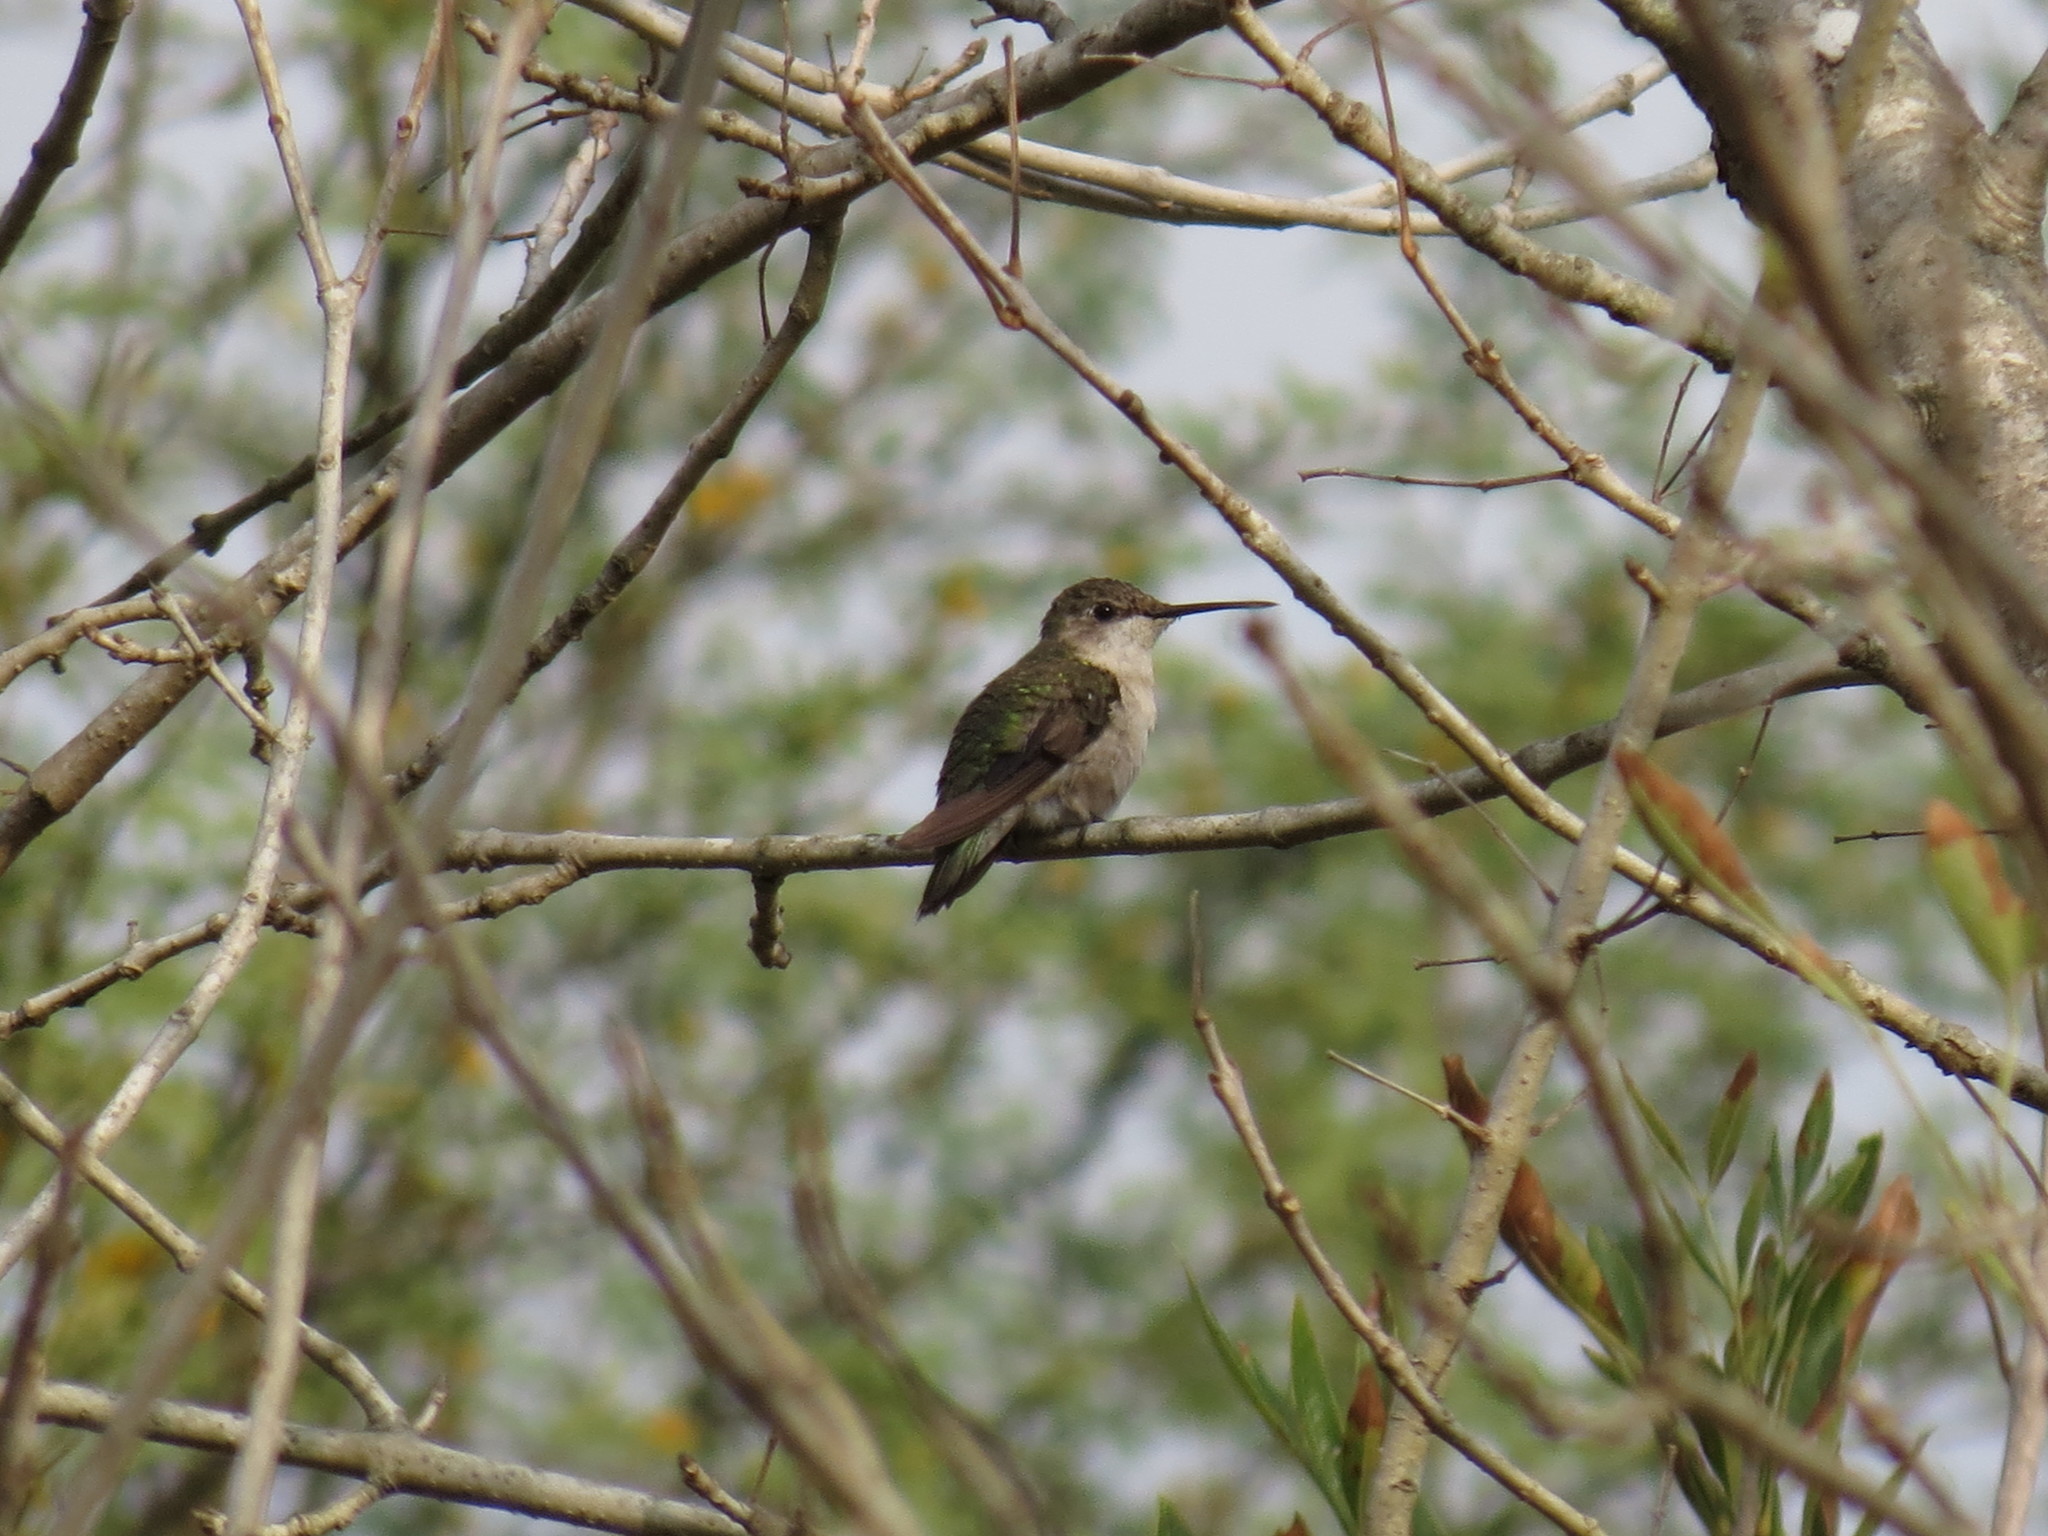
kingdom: Animalia
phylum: Chordata
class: Aves
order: Apodiformes
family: Trochilidae
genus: Archilochus
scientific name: Archilochus colubris
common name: Ruby-throated hummingbird
